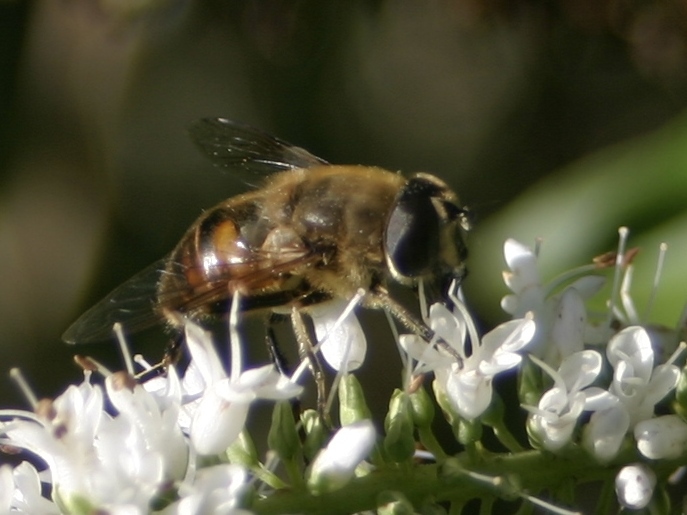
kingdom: Animalia
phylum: Arthropoda
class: Insecta
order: Diptera
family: Syrphidae
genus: Eristalis
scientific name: Eristalis tenax
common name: Drone fly
